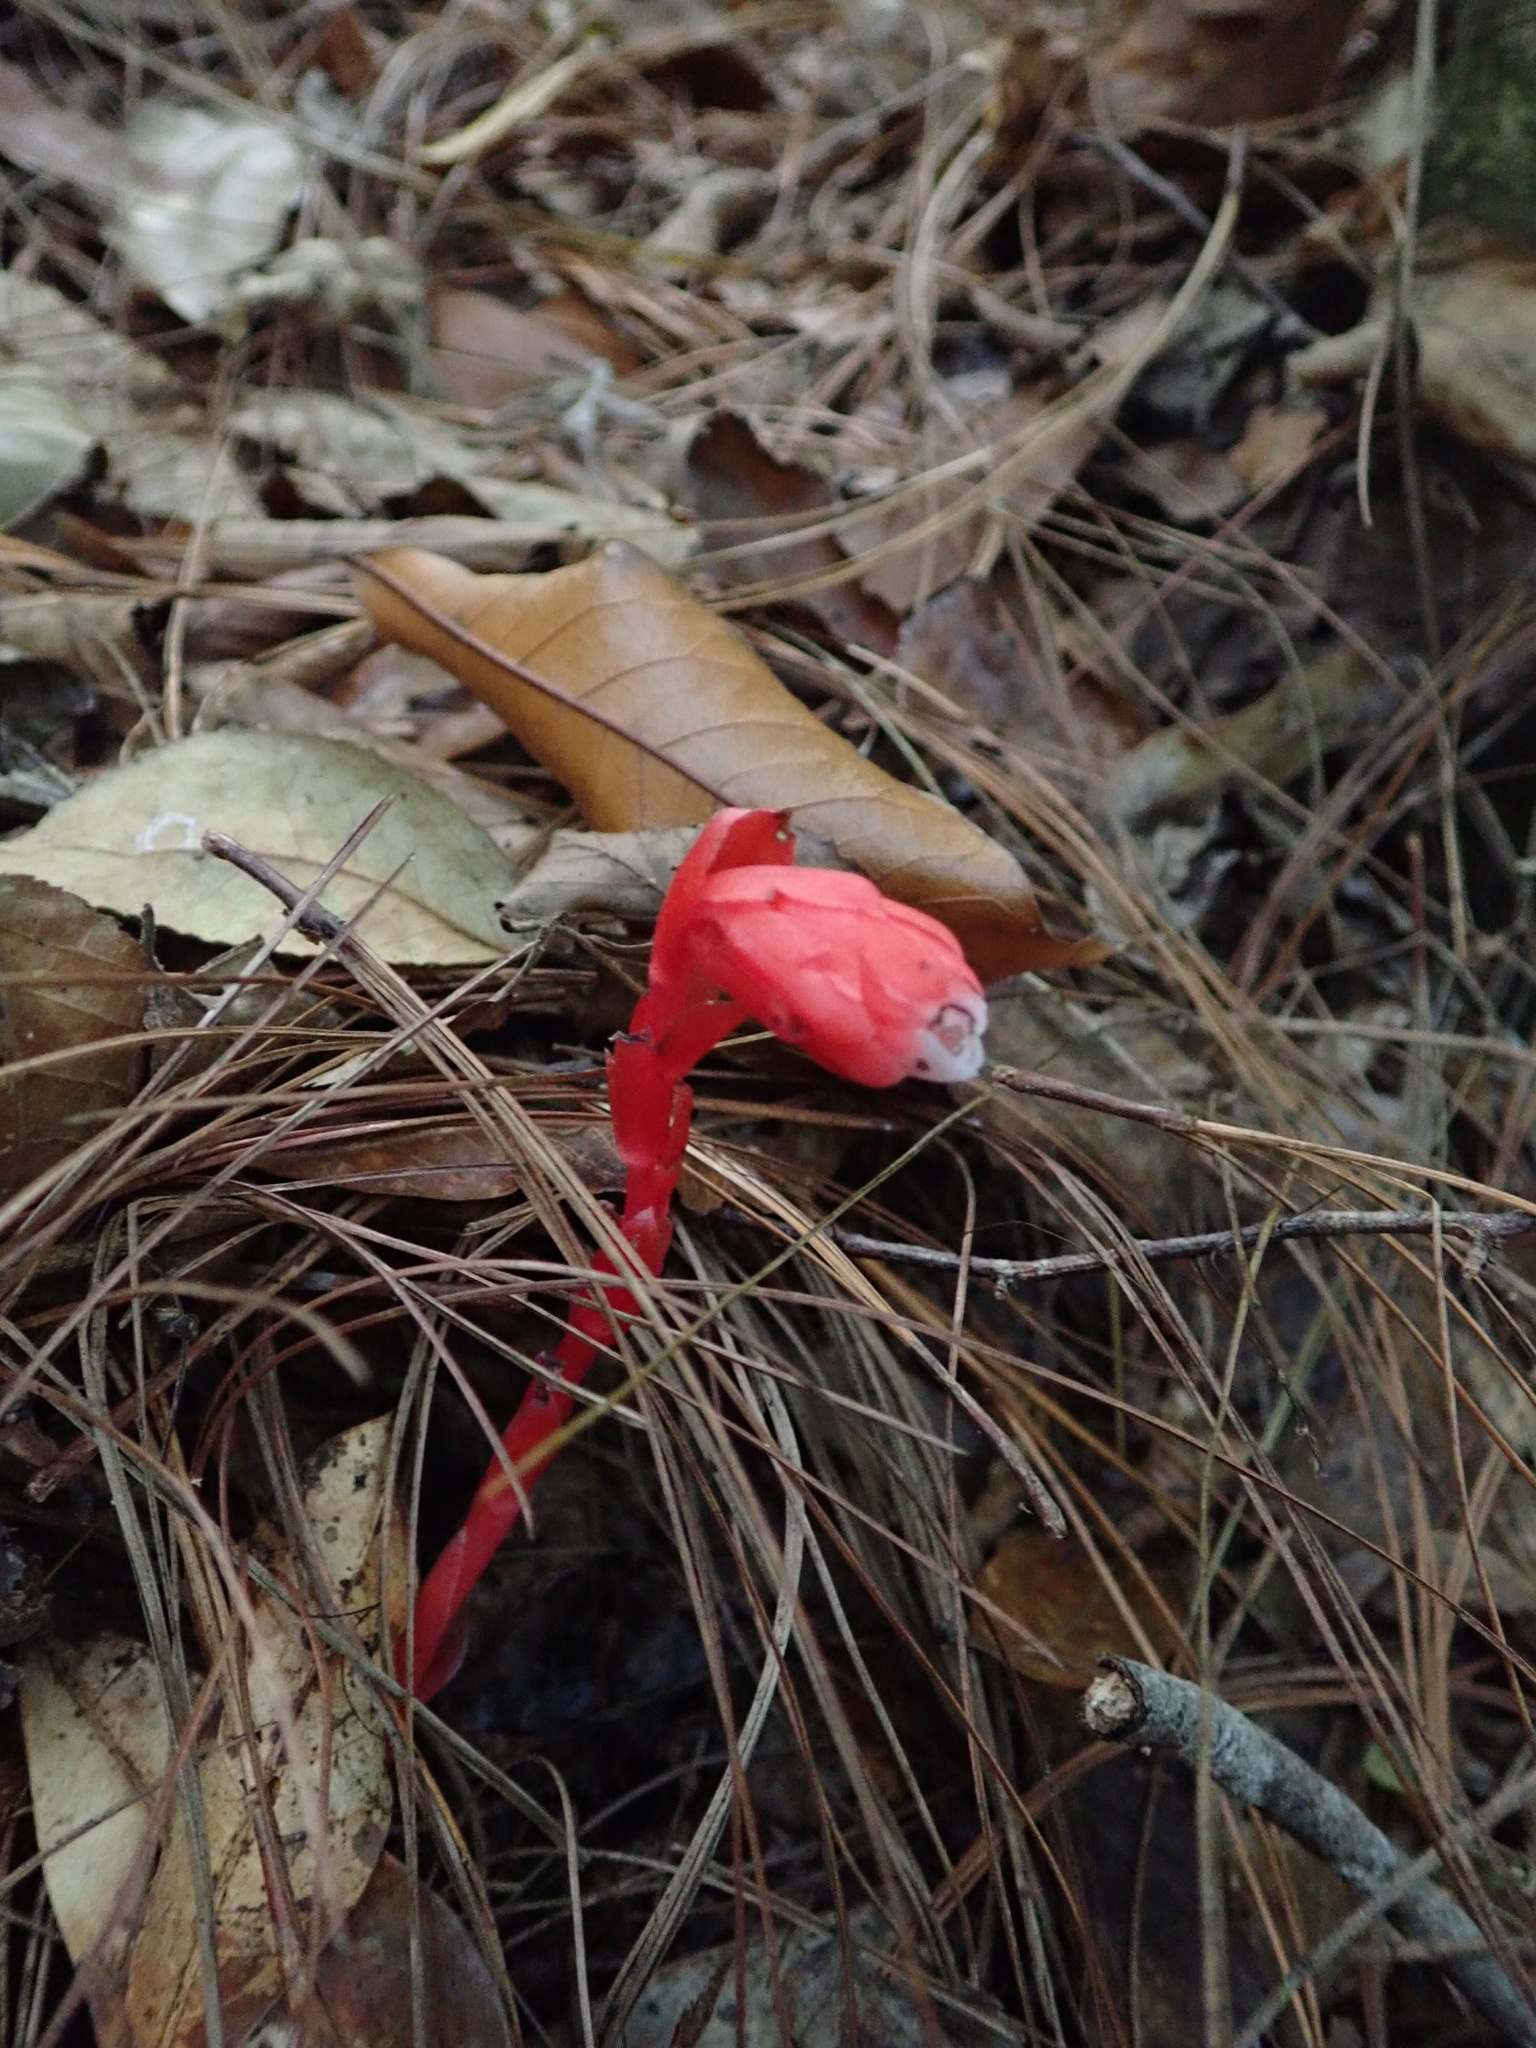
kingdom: Plantae
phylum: Tracheophyta
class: Magnoliopsida
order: Ericales
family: Ericaceae
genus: Monotropa
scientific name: Monotropa coccinea
